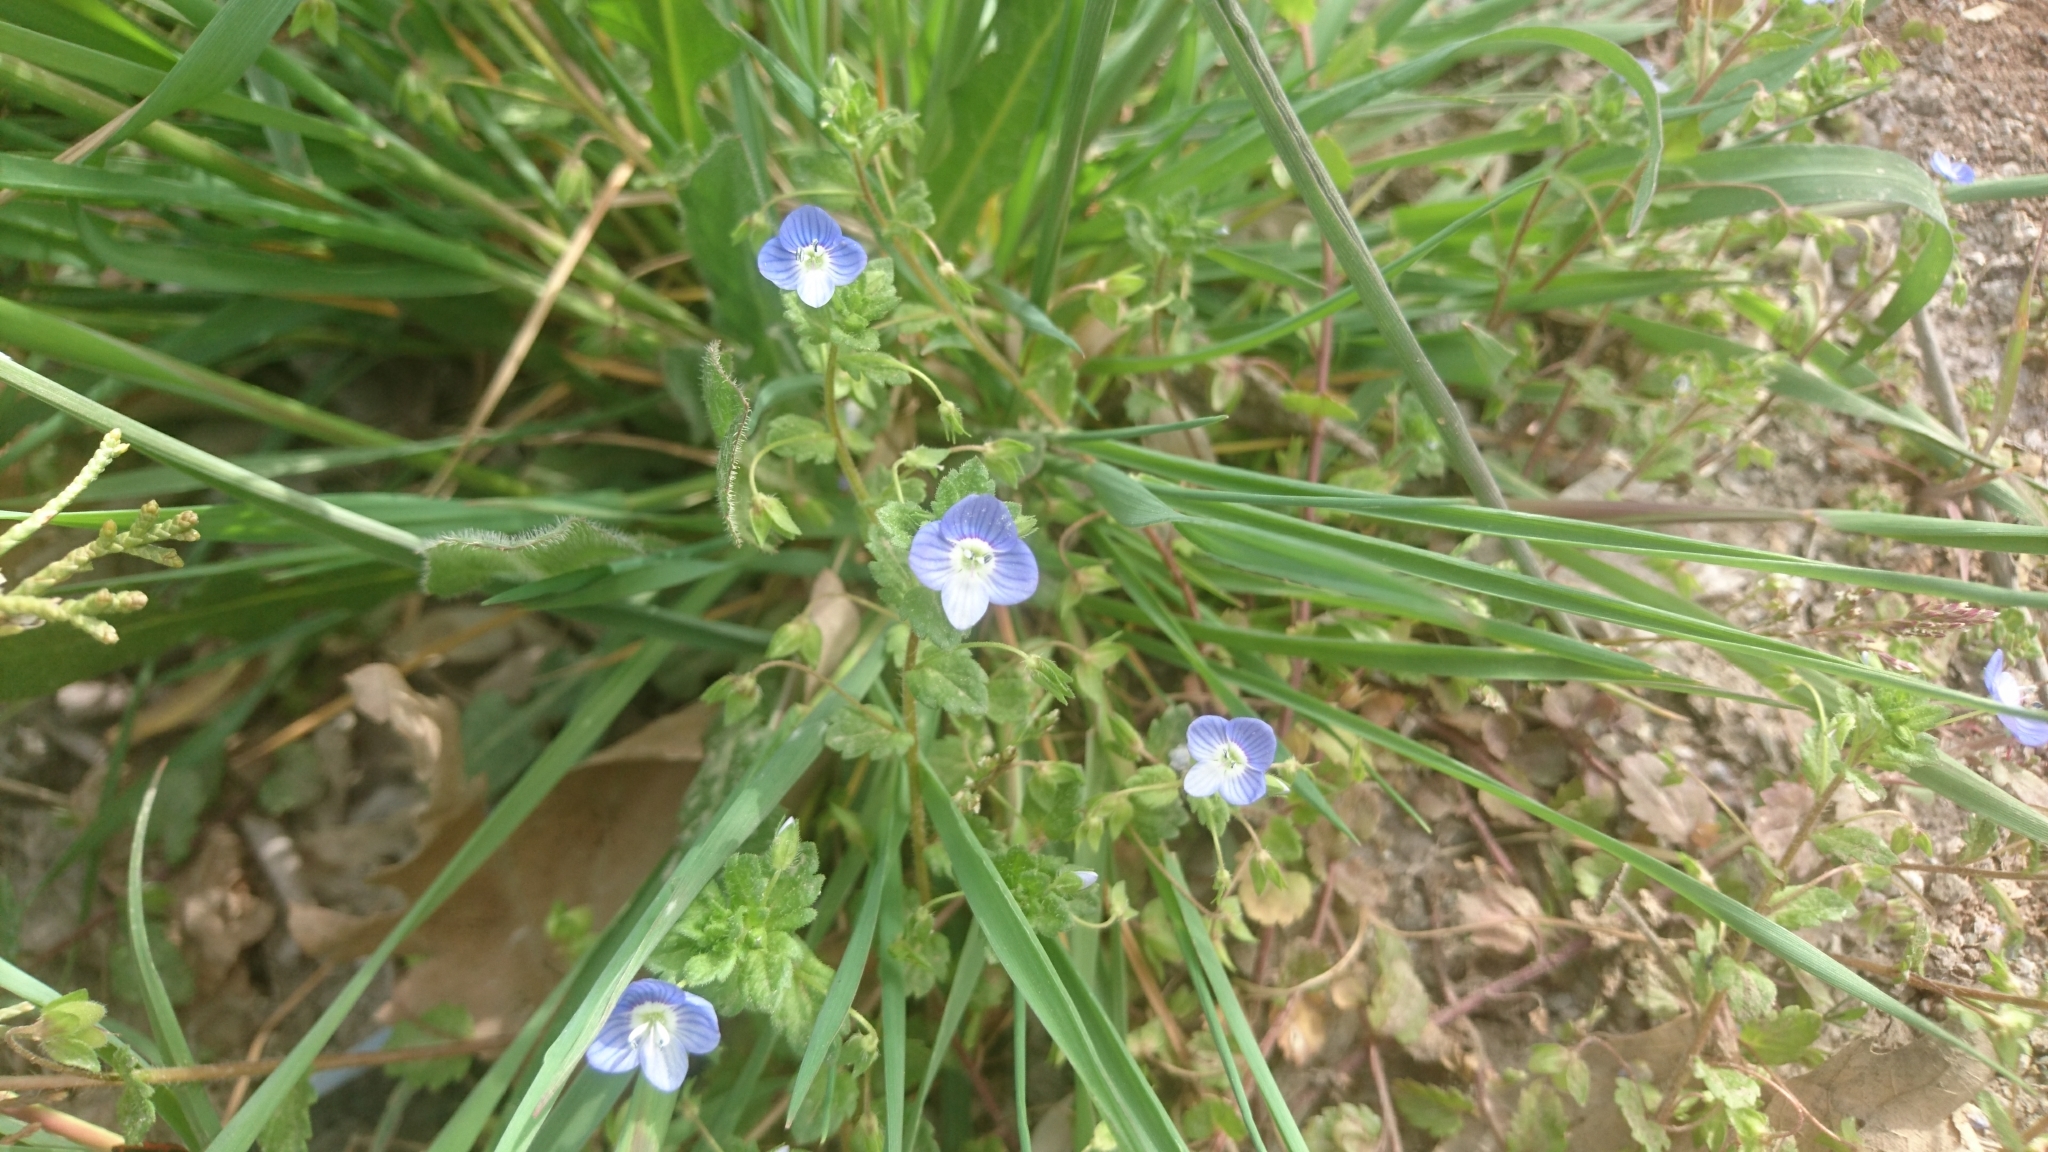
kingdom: Plantae
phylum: Tracheophyta
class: Magnoliopsida
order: Lamiales
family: Plantaginaceae
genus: Veronica
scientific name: Veronica persica
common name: Common field-speedwell
